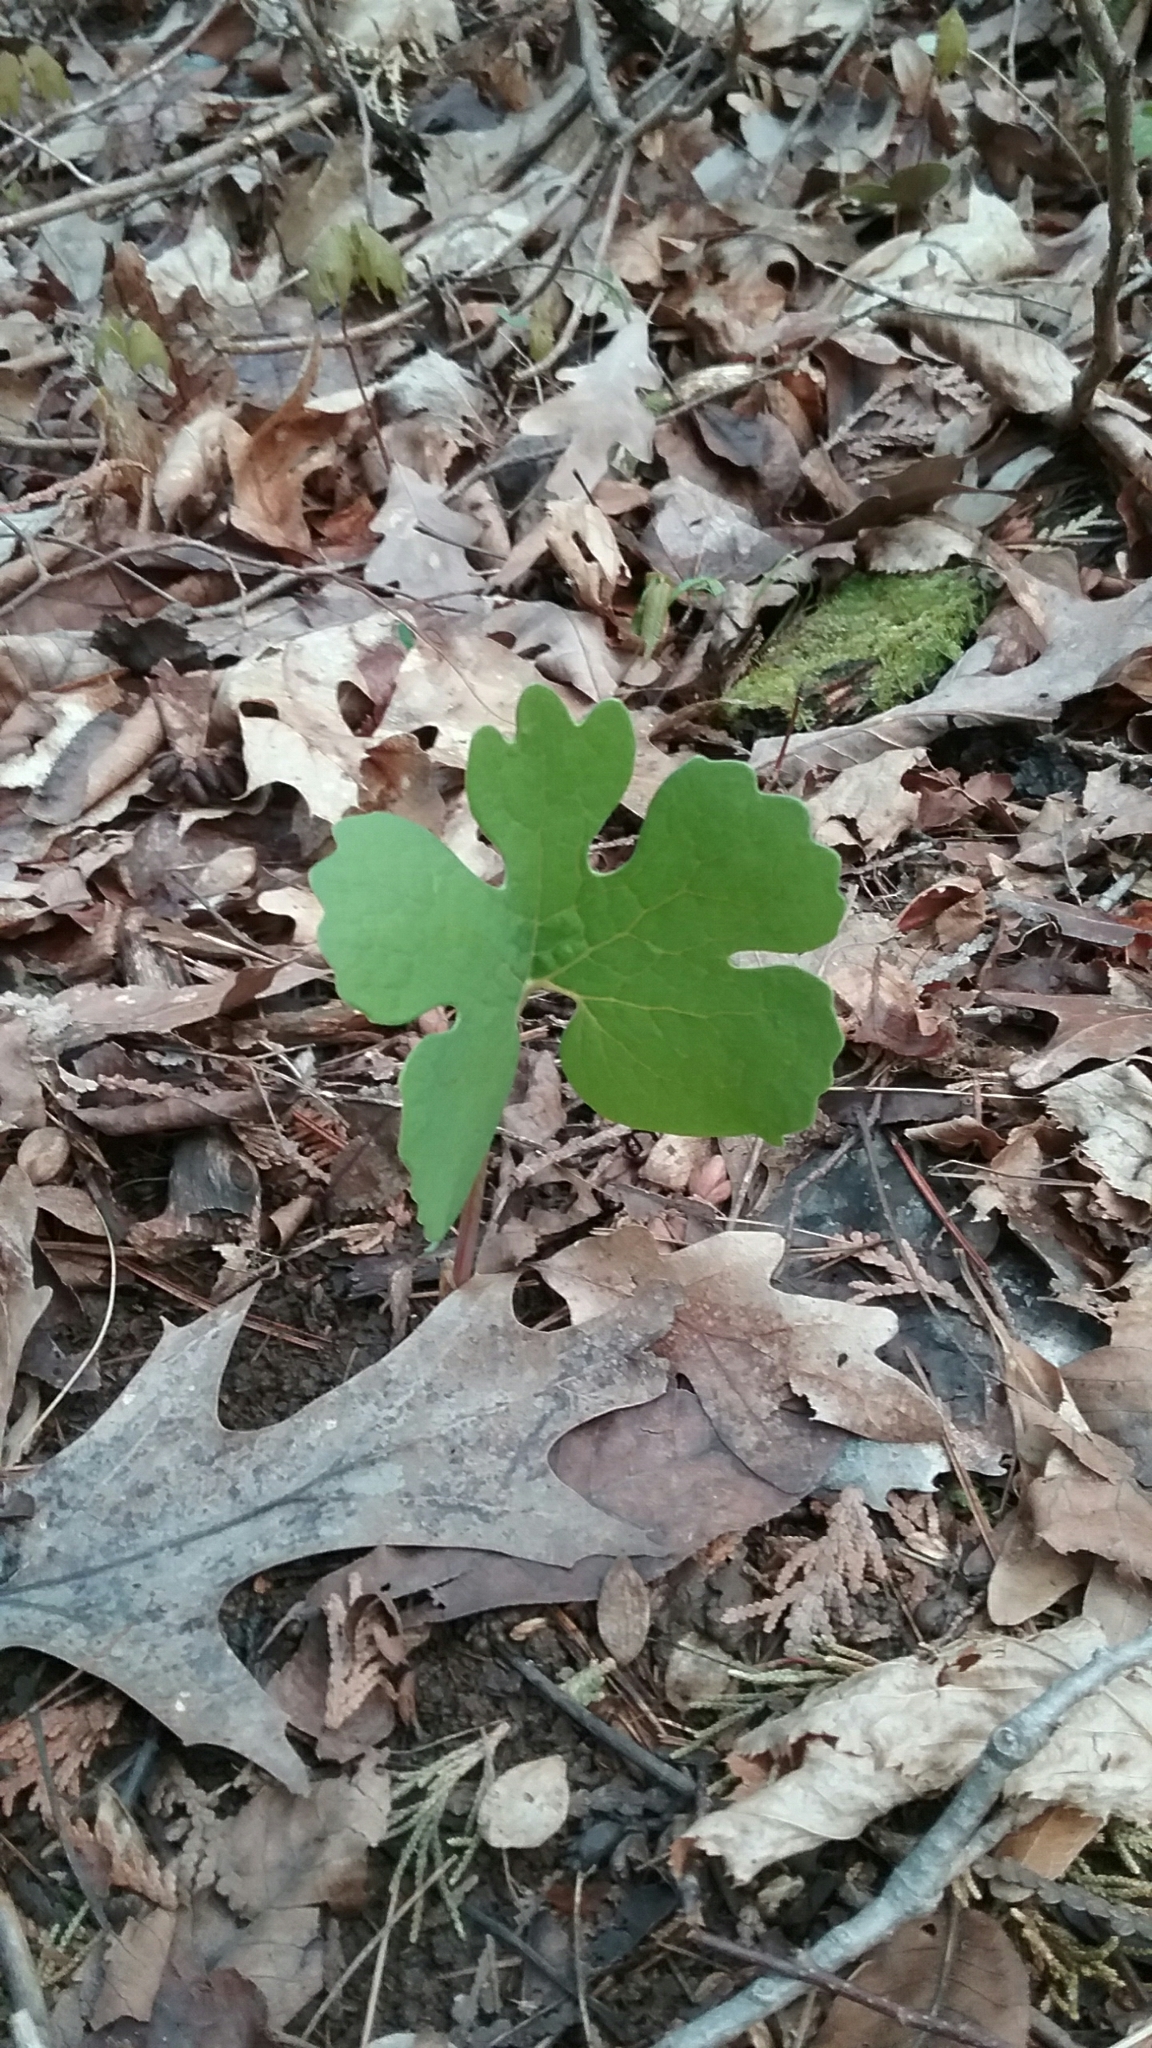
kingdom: Plantae
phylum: Tracheophyta
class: Magnoliopsida
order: Ranunculales
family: Papaveraceae
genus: Sanguinaria
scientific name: Sanguinaria canadensis
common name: Bloodroot
